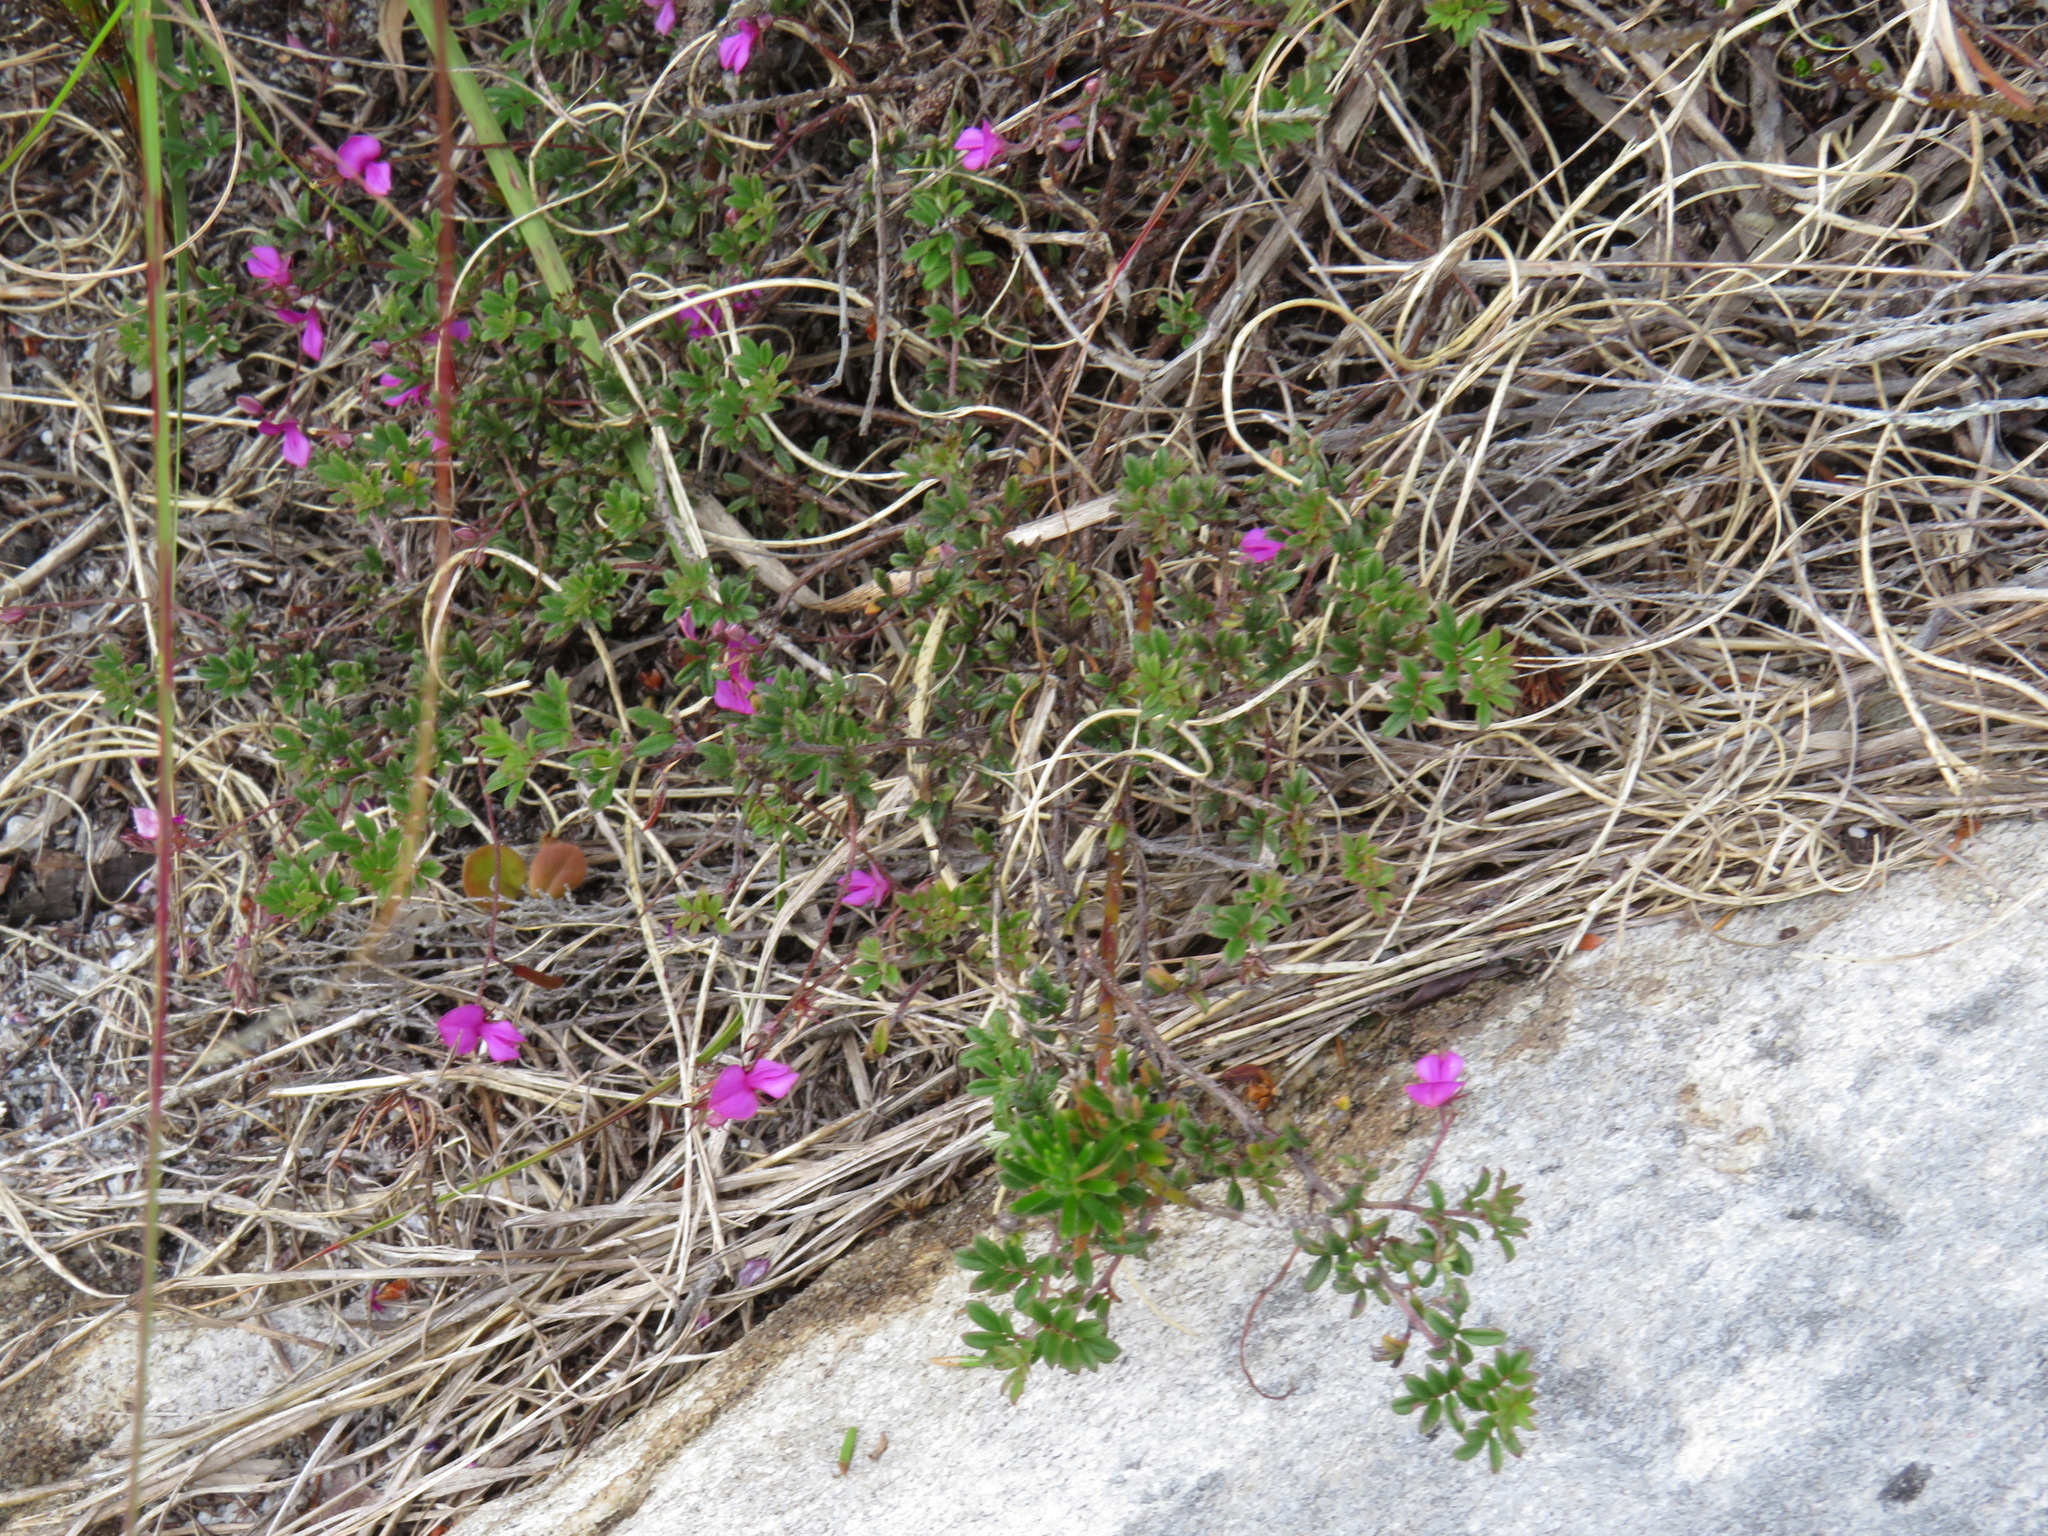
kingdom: Plantae
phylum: Tracheophyta
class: Magnoliopsida
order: Fabales
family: Fabaceae
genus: Indigofera
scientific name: Indigofera angustifolia
